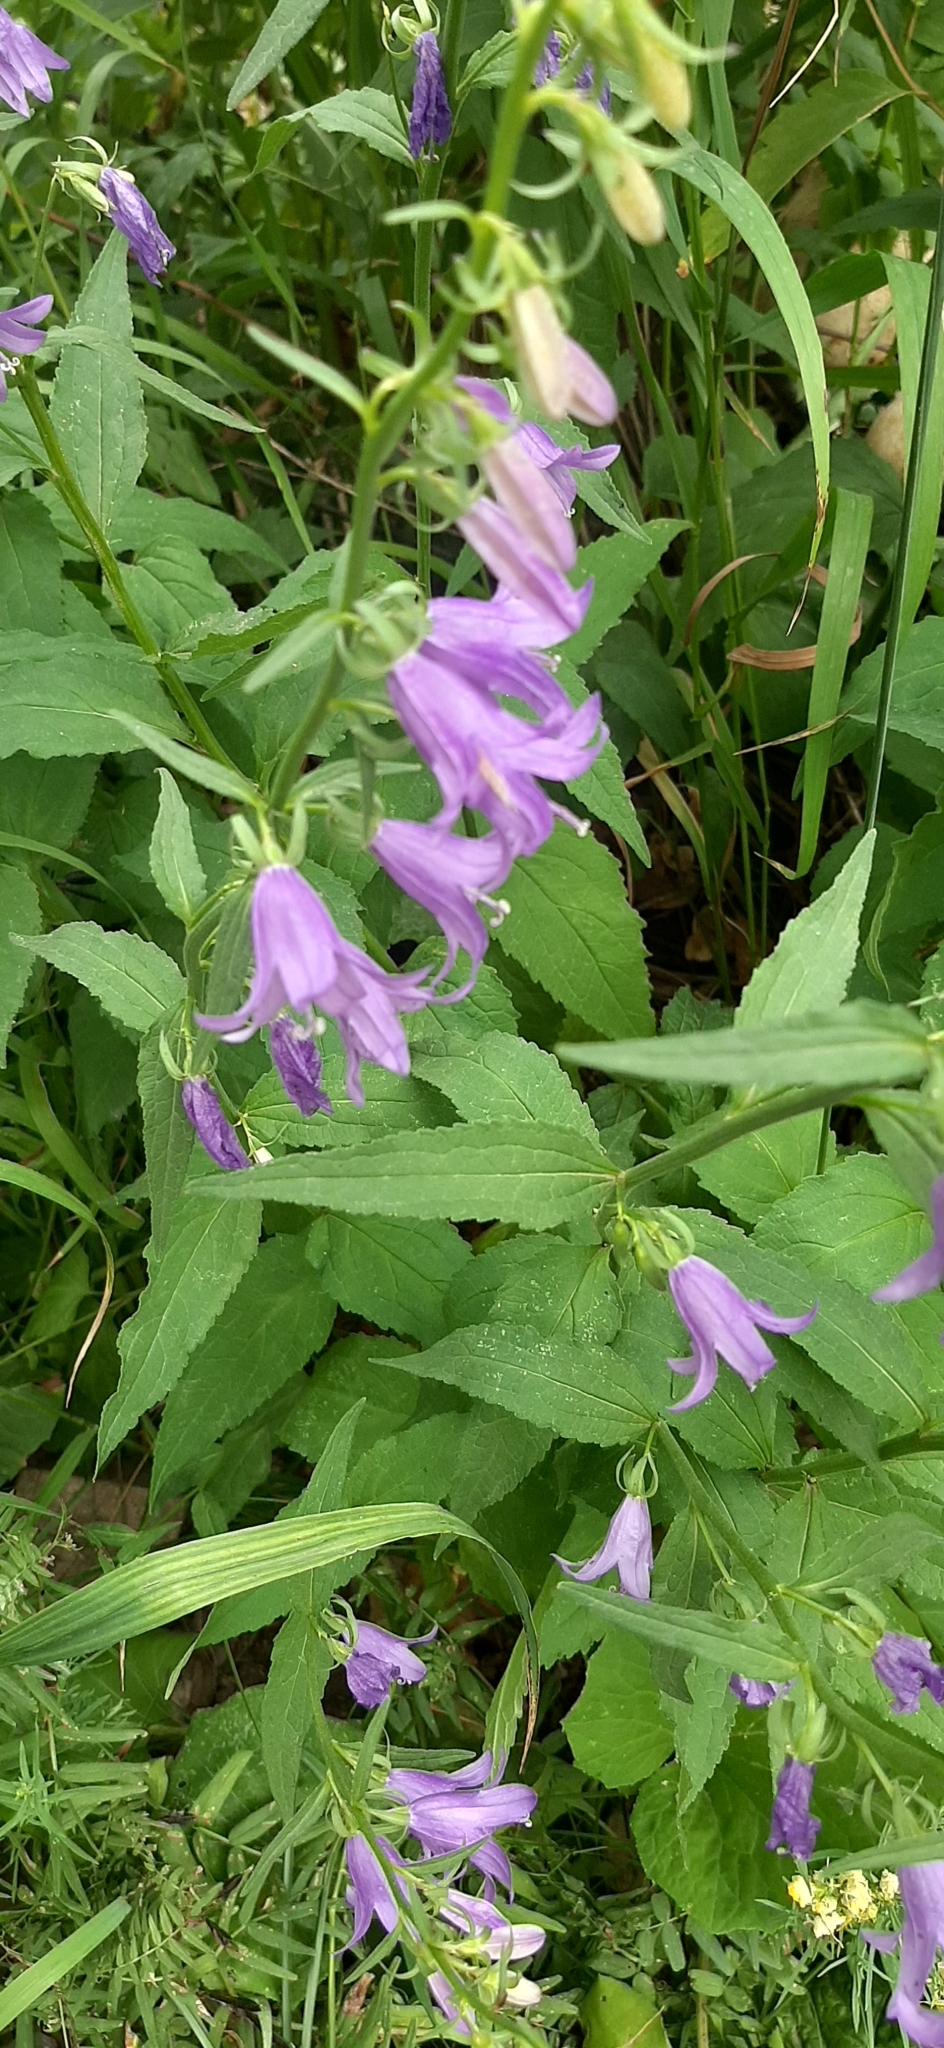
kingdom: Plantae
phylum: Tracheophyta
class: Magnoliopsida
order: Asterales
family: Campanulaceae
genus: Campanula
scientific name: Campanula rapunculoides
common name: Creeping bellflower
